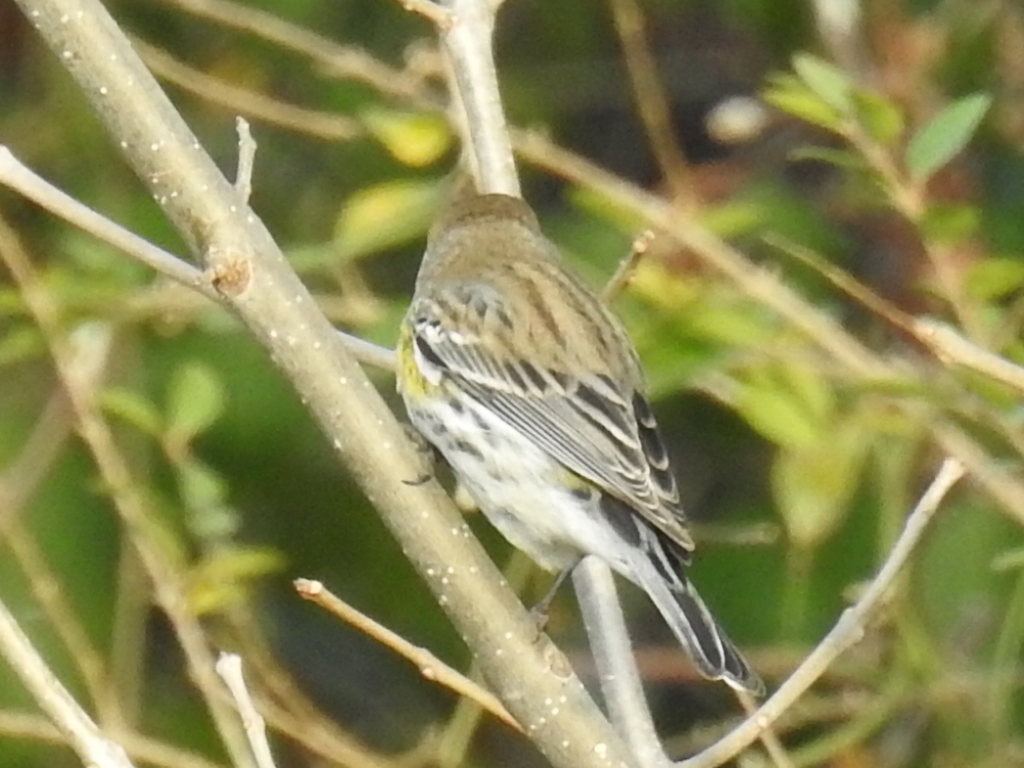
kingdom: Animalia
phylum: Chordata
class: Aves
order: Passeriformes
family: Parulidae
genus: Setophaga
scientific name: Setophaga coronata
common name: Myrtle warbler
